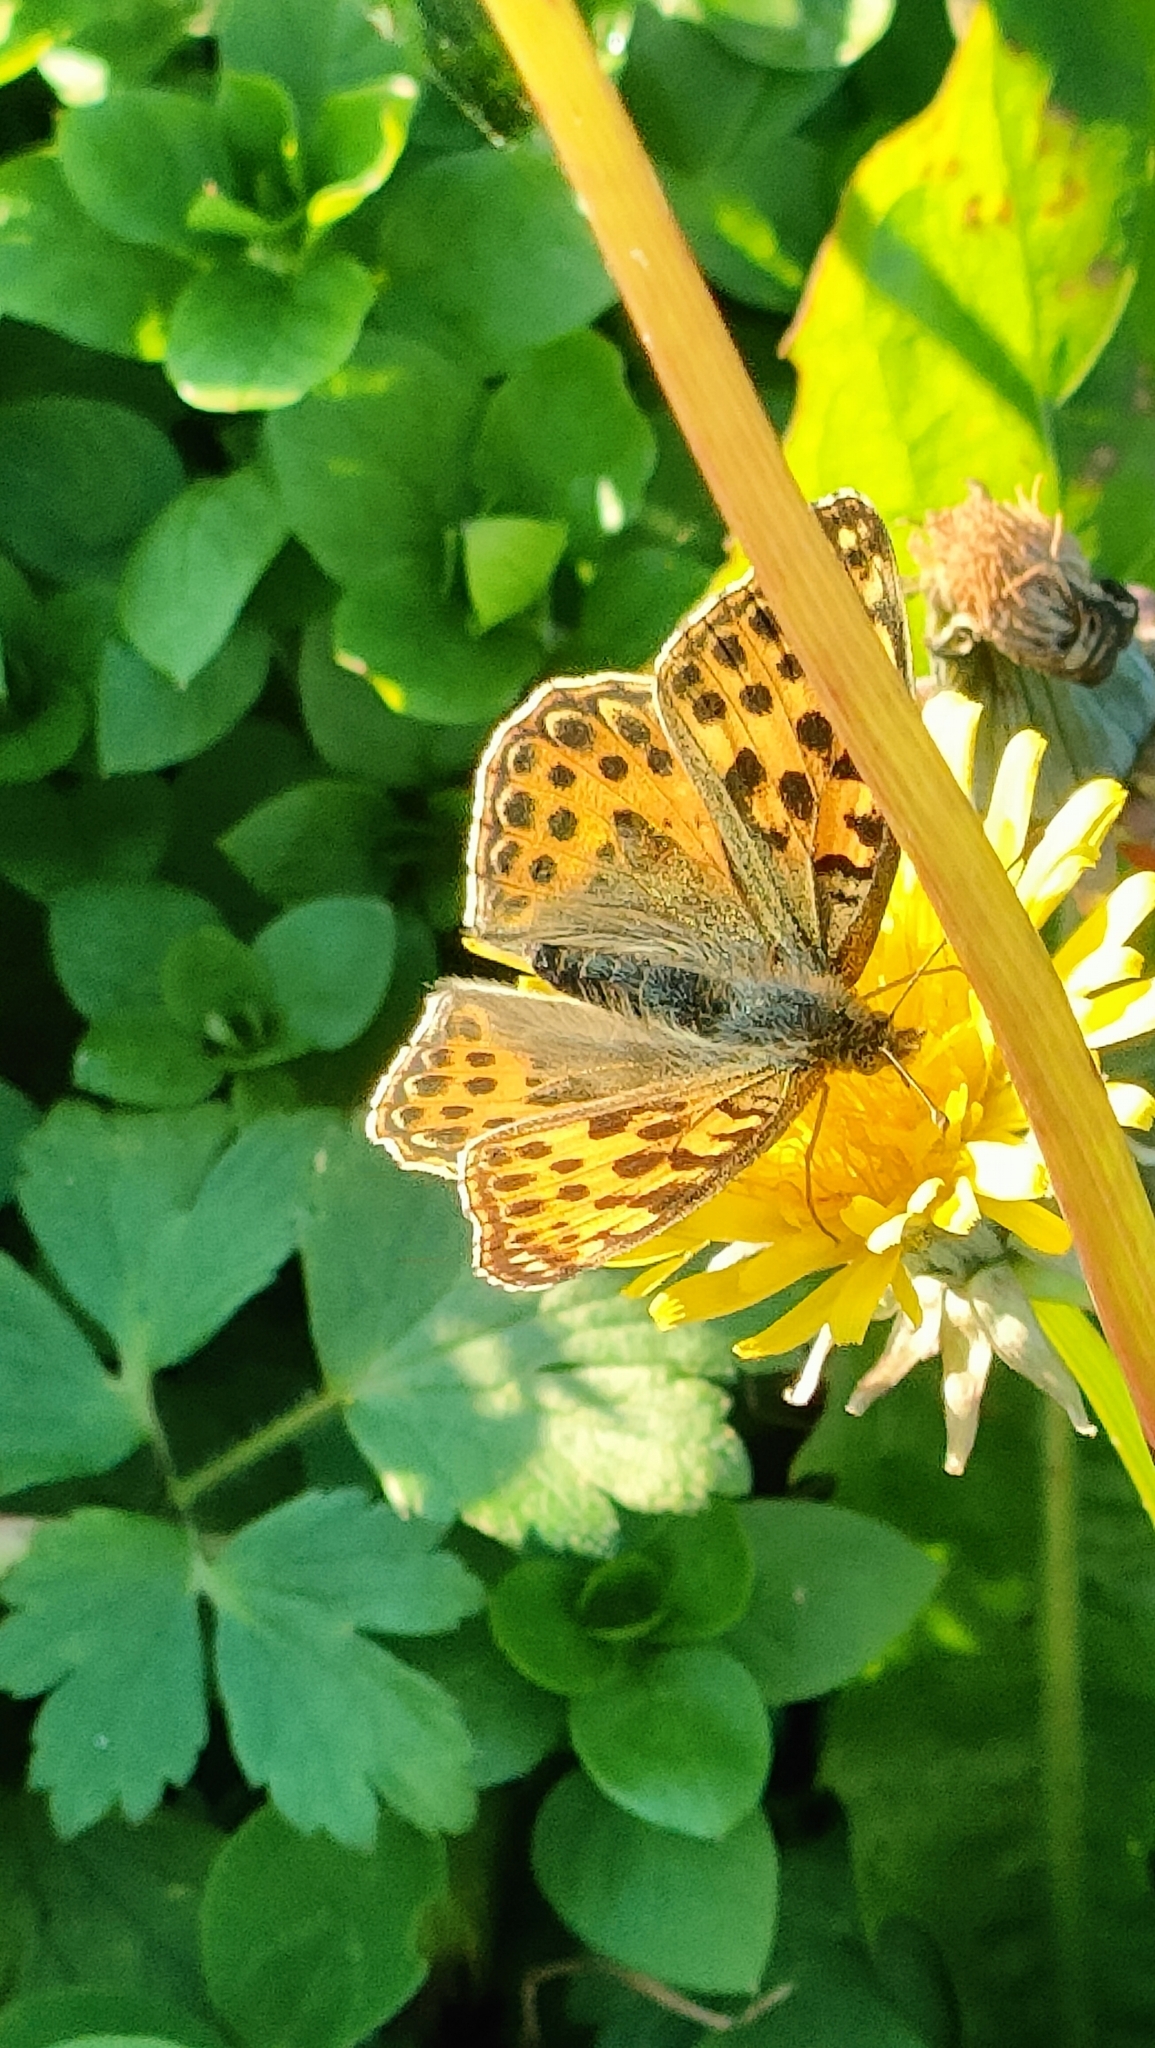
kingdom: Animalia
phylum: Arthropoda
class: Insecta
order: Lepidoptera
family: Nymphalidae
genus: Issoria
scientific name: Issoria lathonia
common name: Queen of spain fritillary
